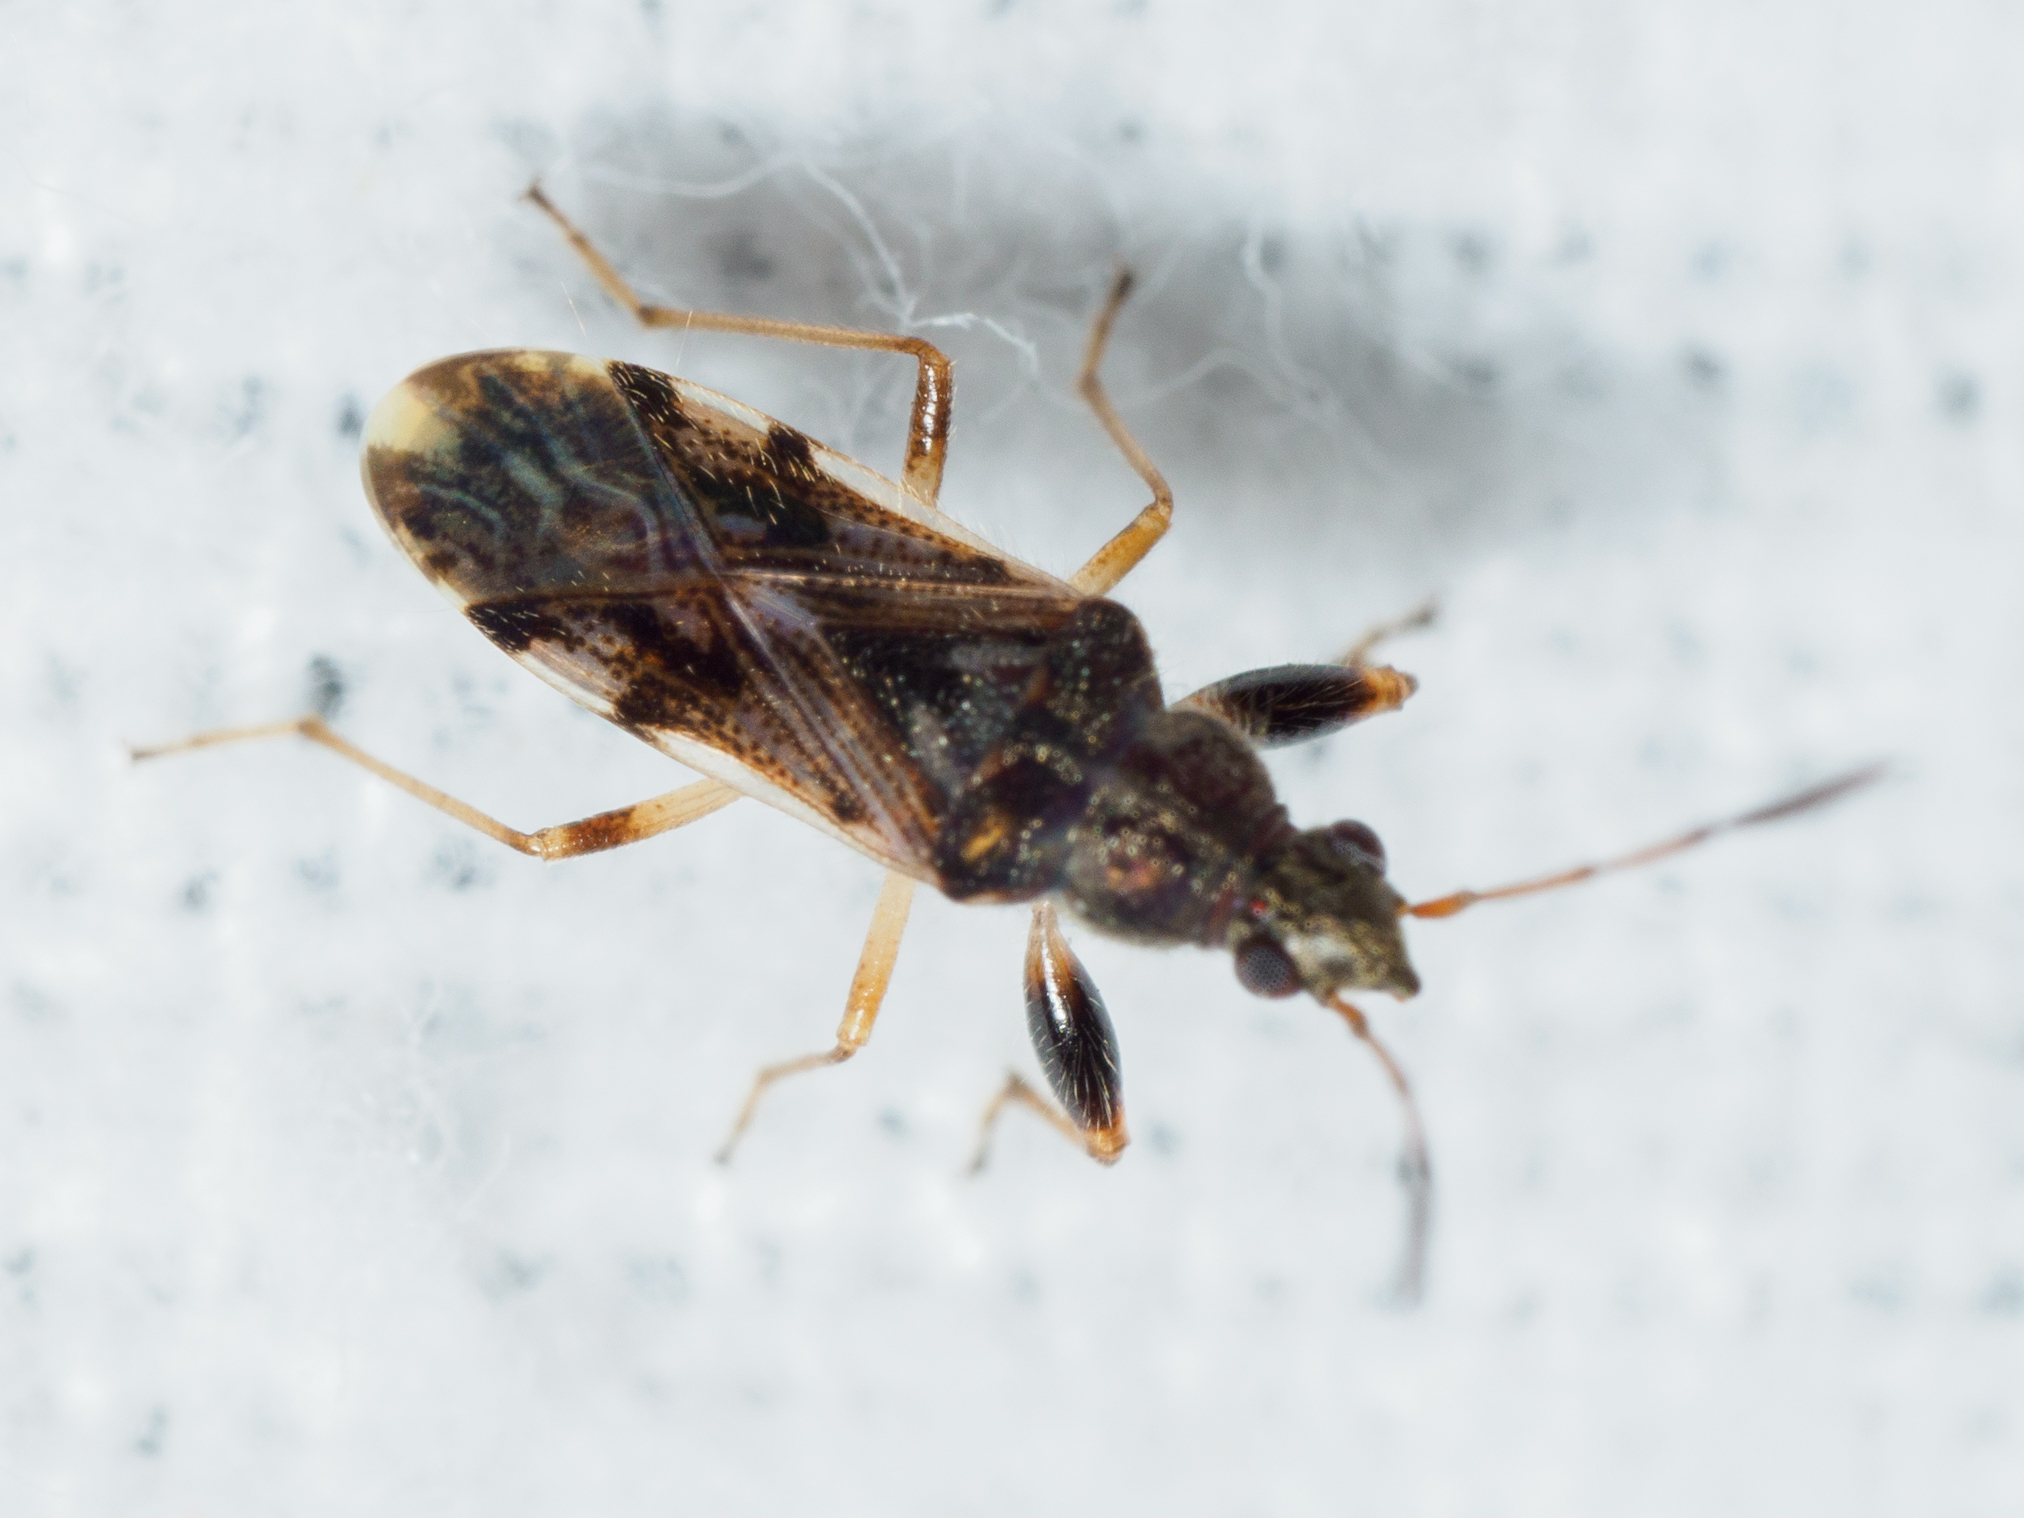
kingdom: Animalia
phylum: Arthropoda
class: Insecta
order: Hemiptera
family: Rhyparochromidae
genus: Remaudiereana
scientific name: Remaudiereana inornatus
